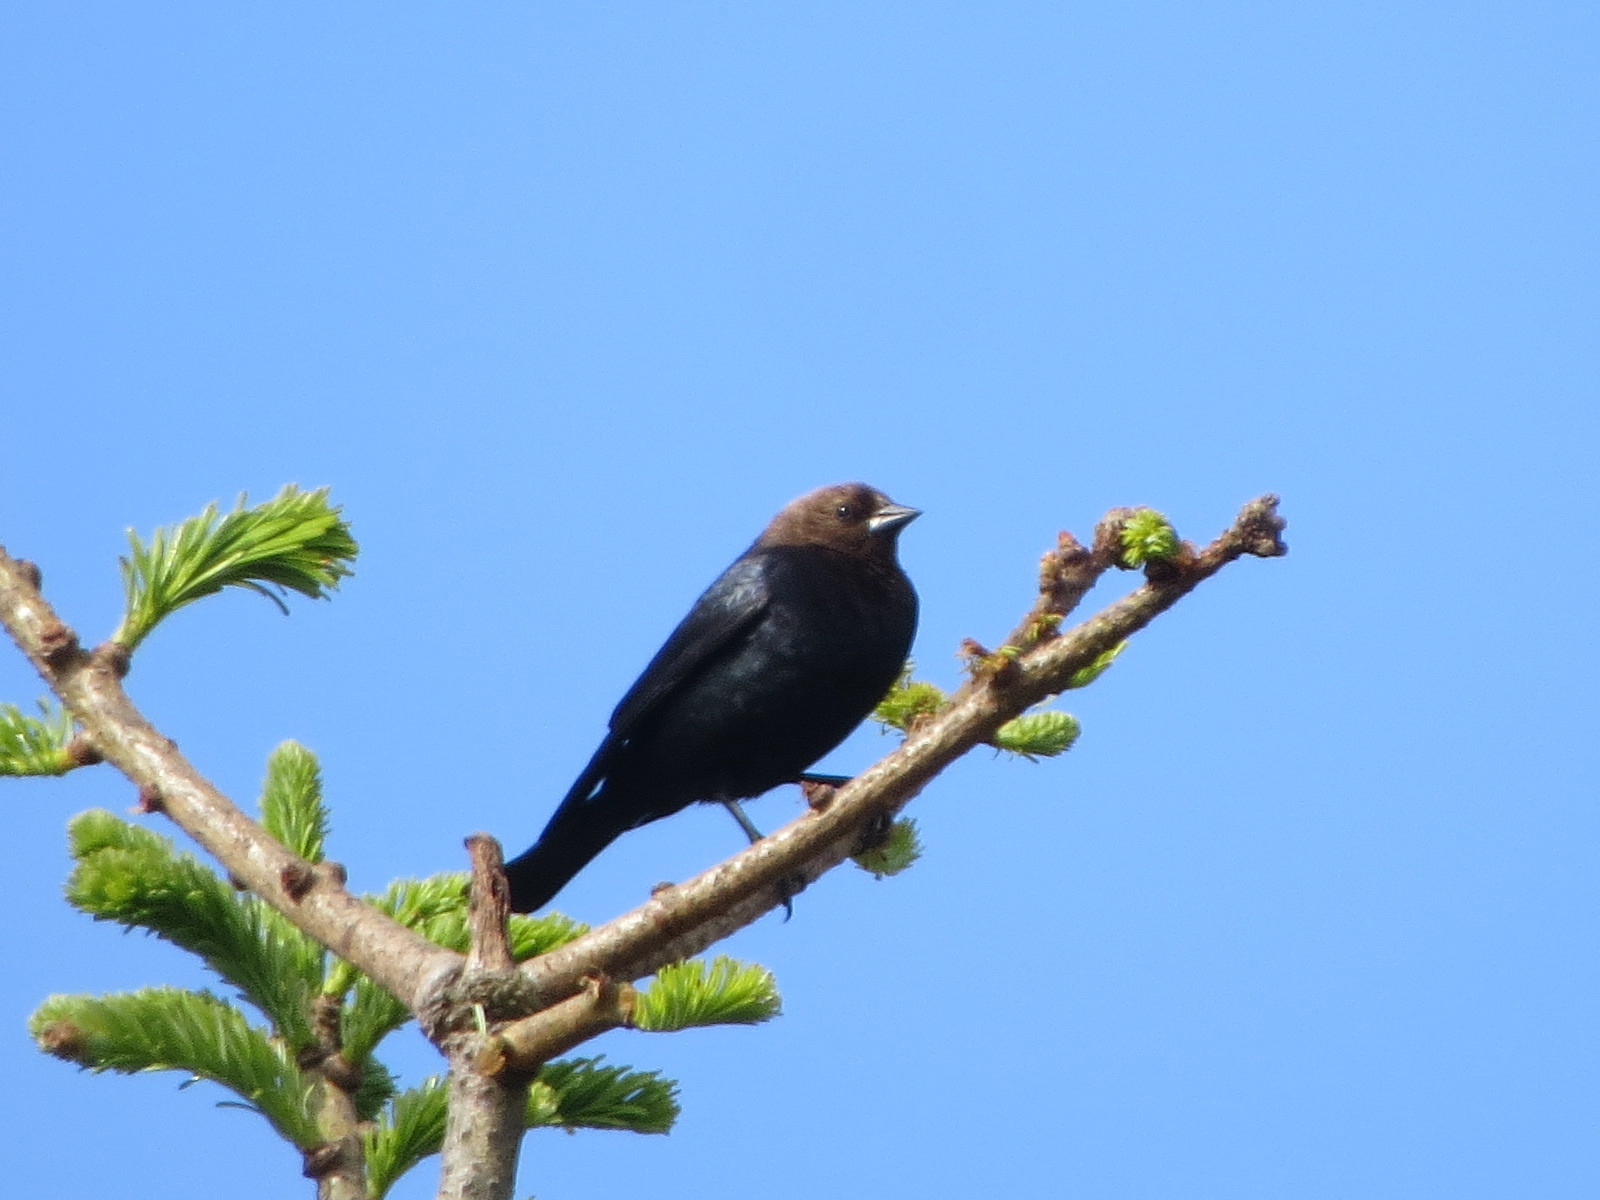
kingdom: Animalia
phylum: Chordata
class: Aves
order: Passeriformes
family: Icteridae
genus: Molothrus
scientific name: Molothrus ater
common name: Brown-headed cowbird
